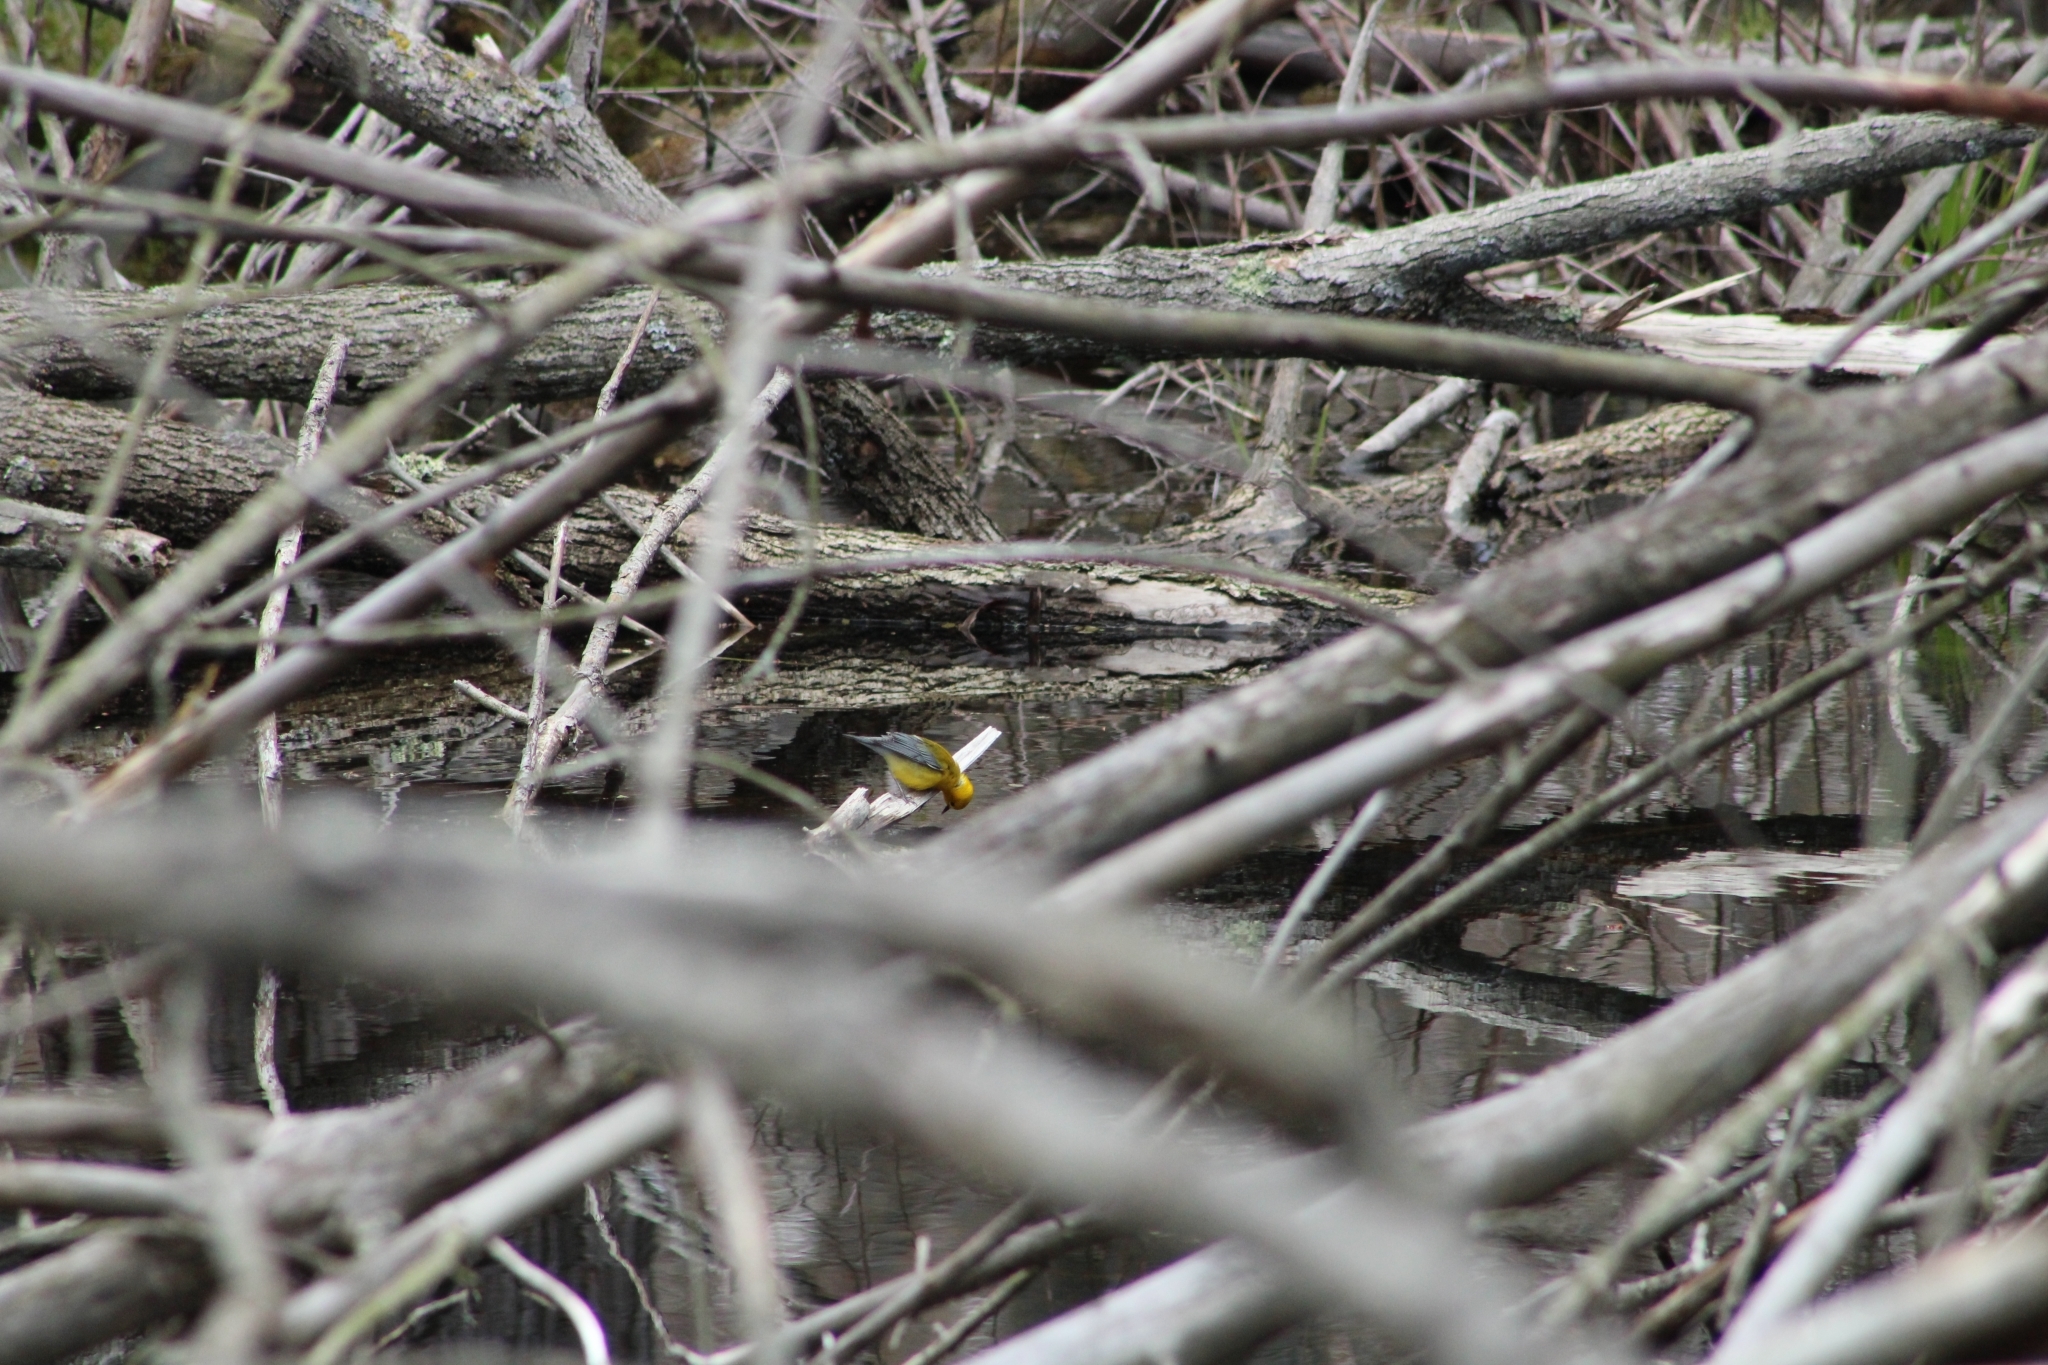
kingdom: Animalia
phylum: Chordata
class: Aves
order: Passeriformes
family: Parulidae
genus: Protonotaria
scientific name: Protonotaria citrea
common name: Prothonotary warbler
